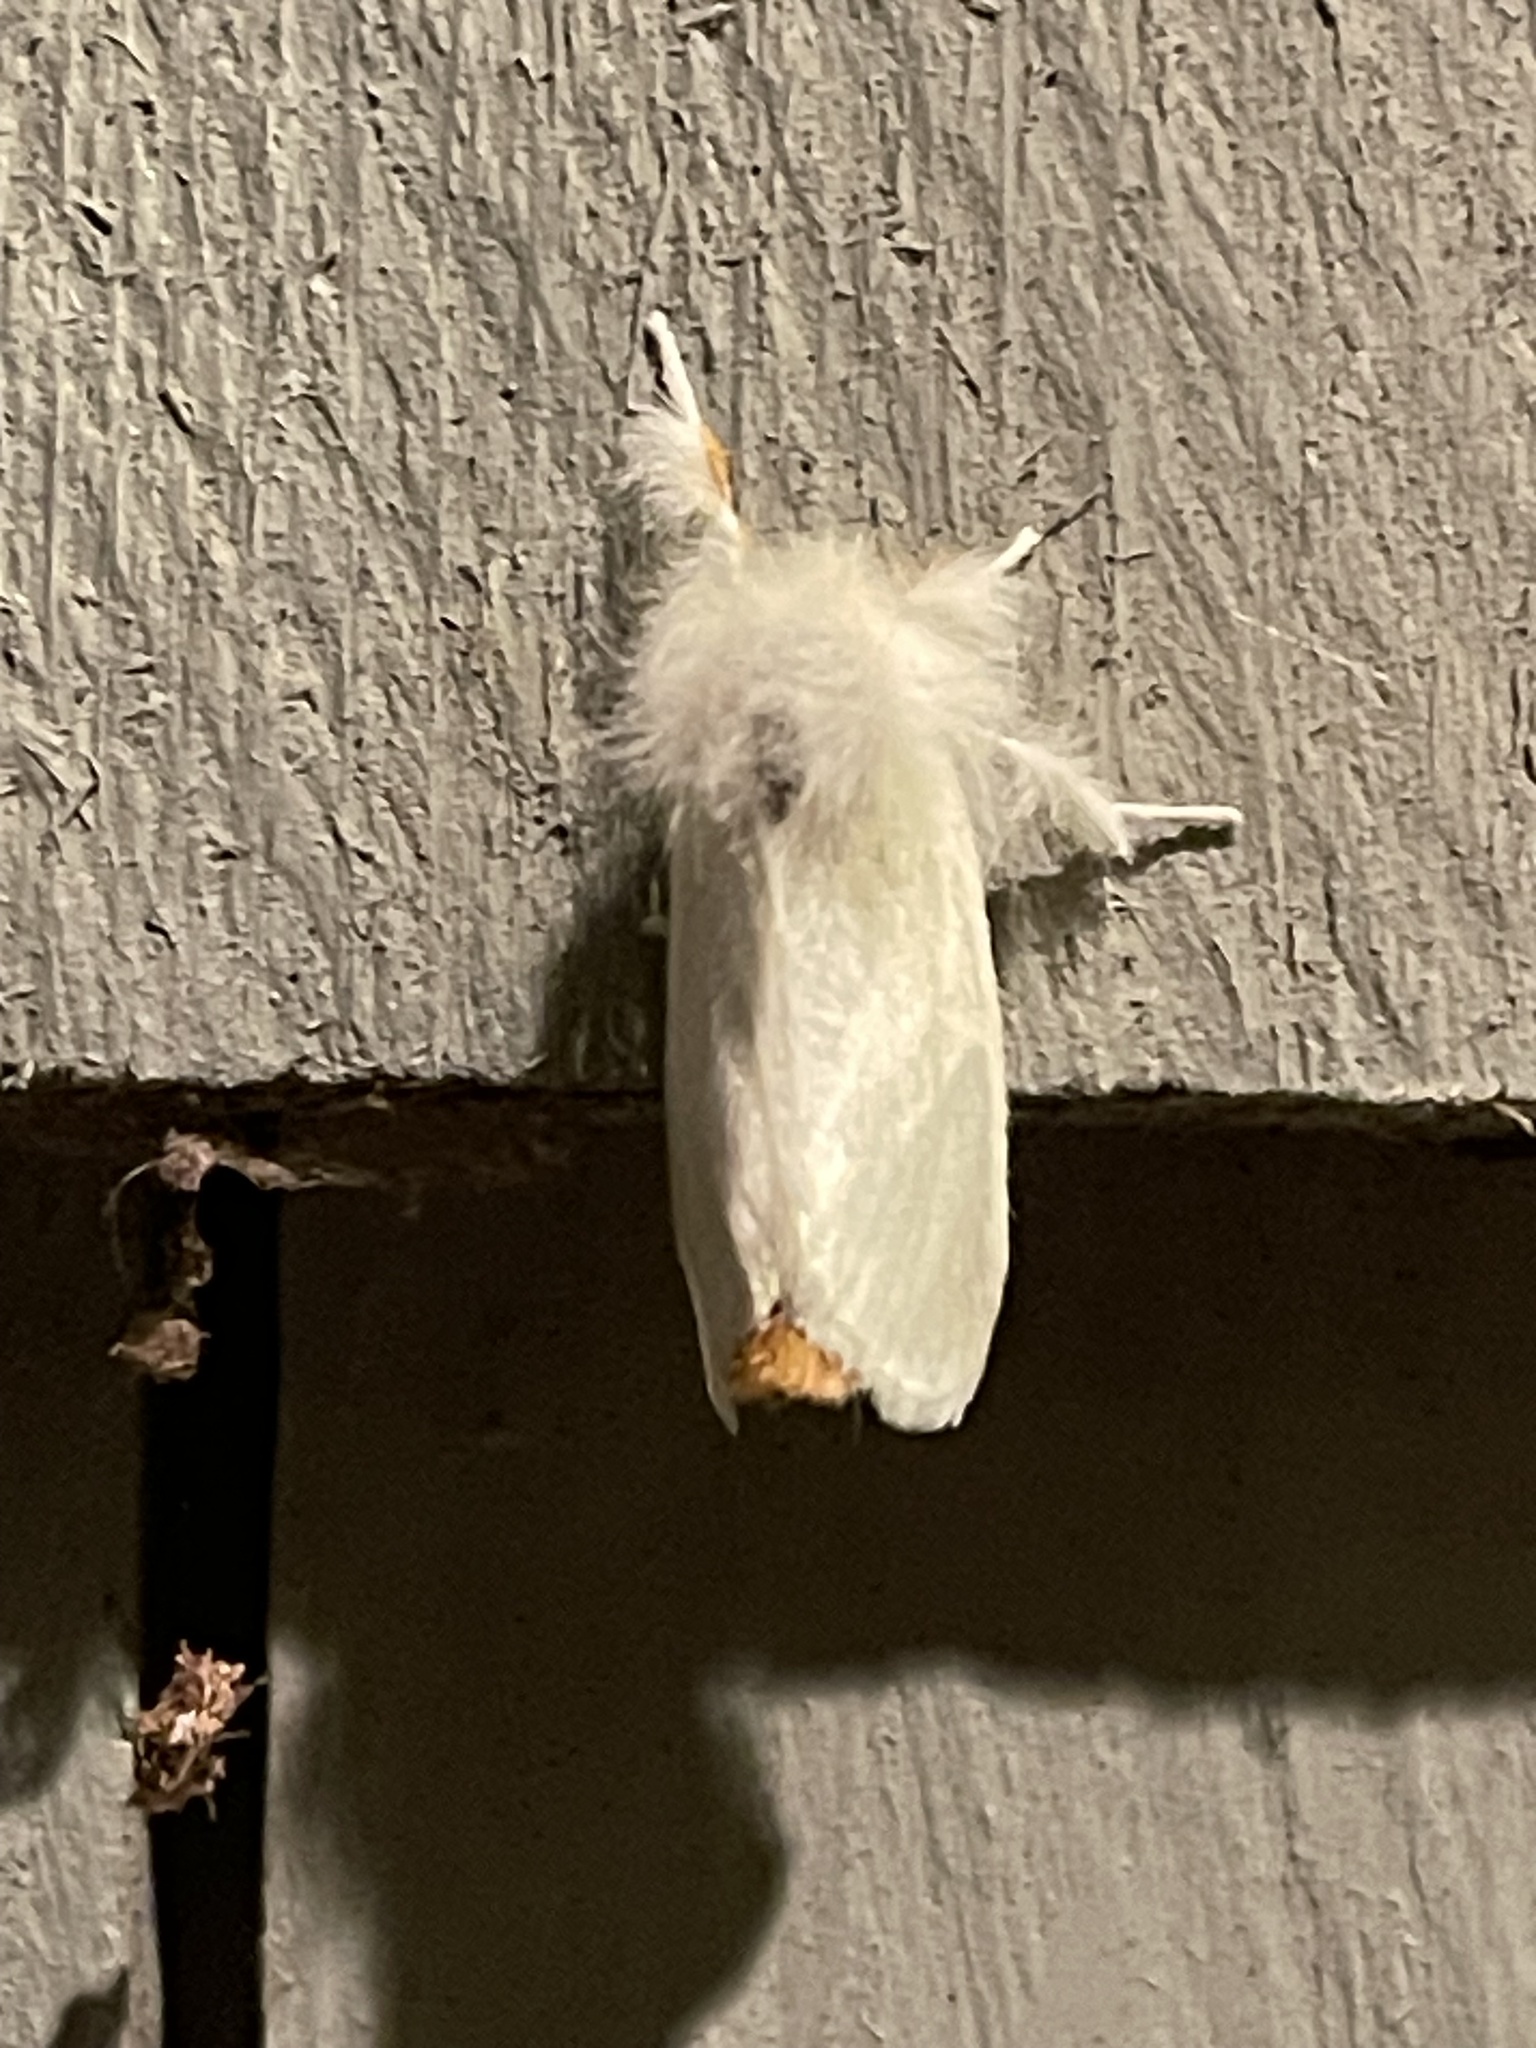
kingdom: Animalia
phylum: Arthropoda
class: Insecta
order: Lepidoptera
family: Erebidae
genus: Euproctis
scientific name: Euproctis chrysorrhoea
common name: Brown-tail
